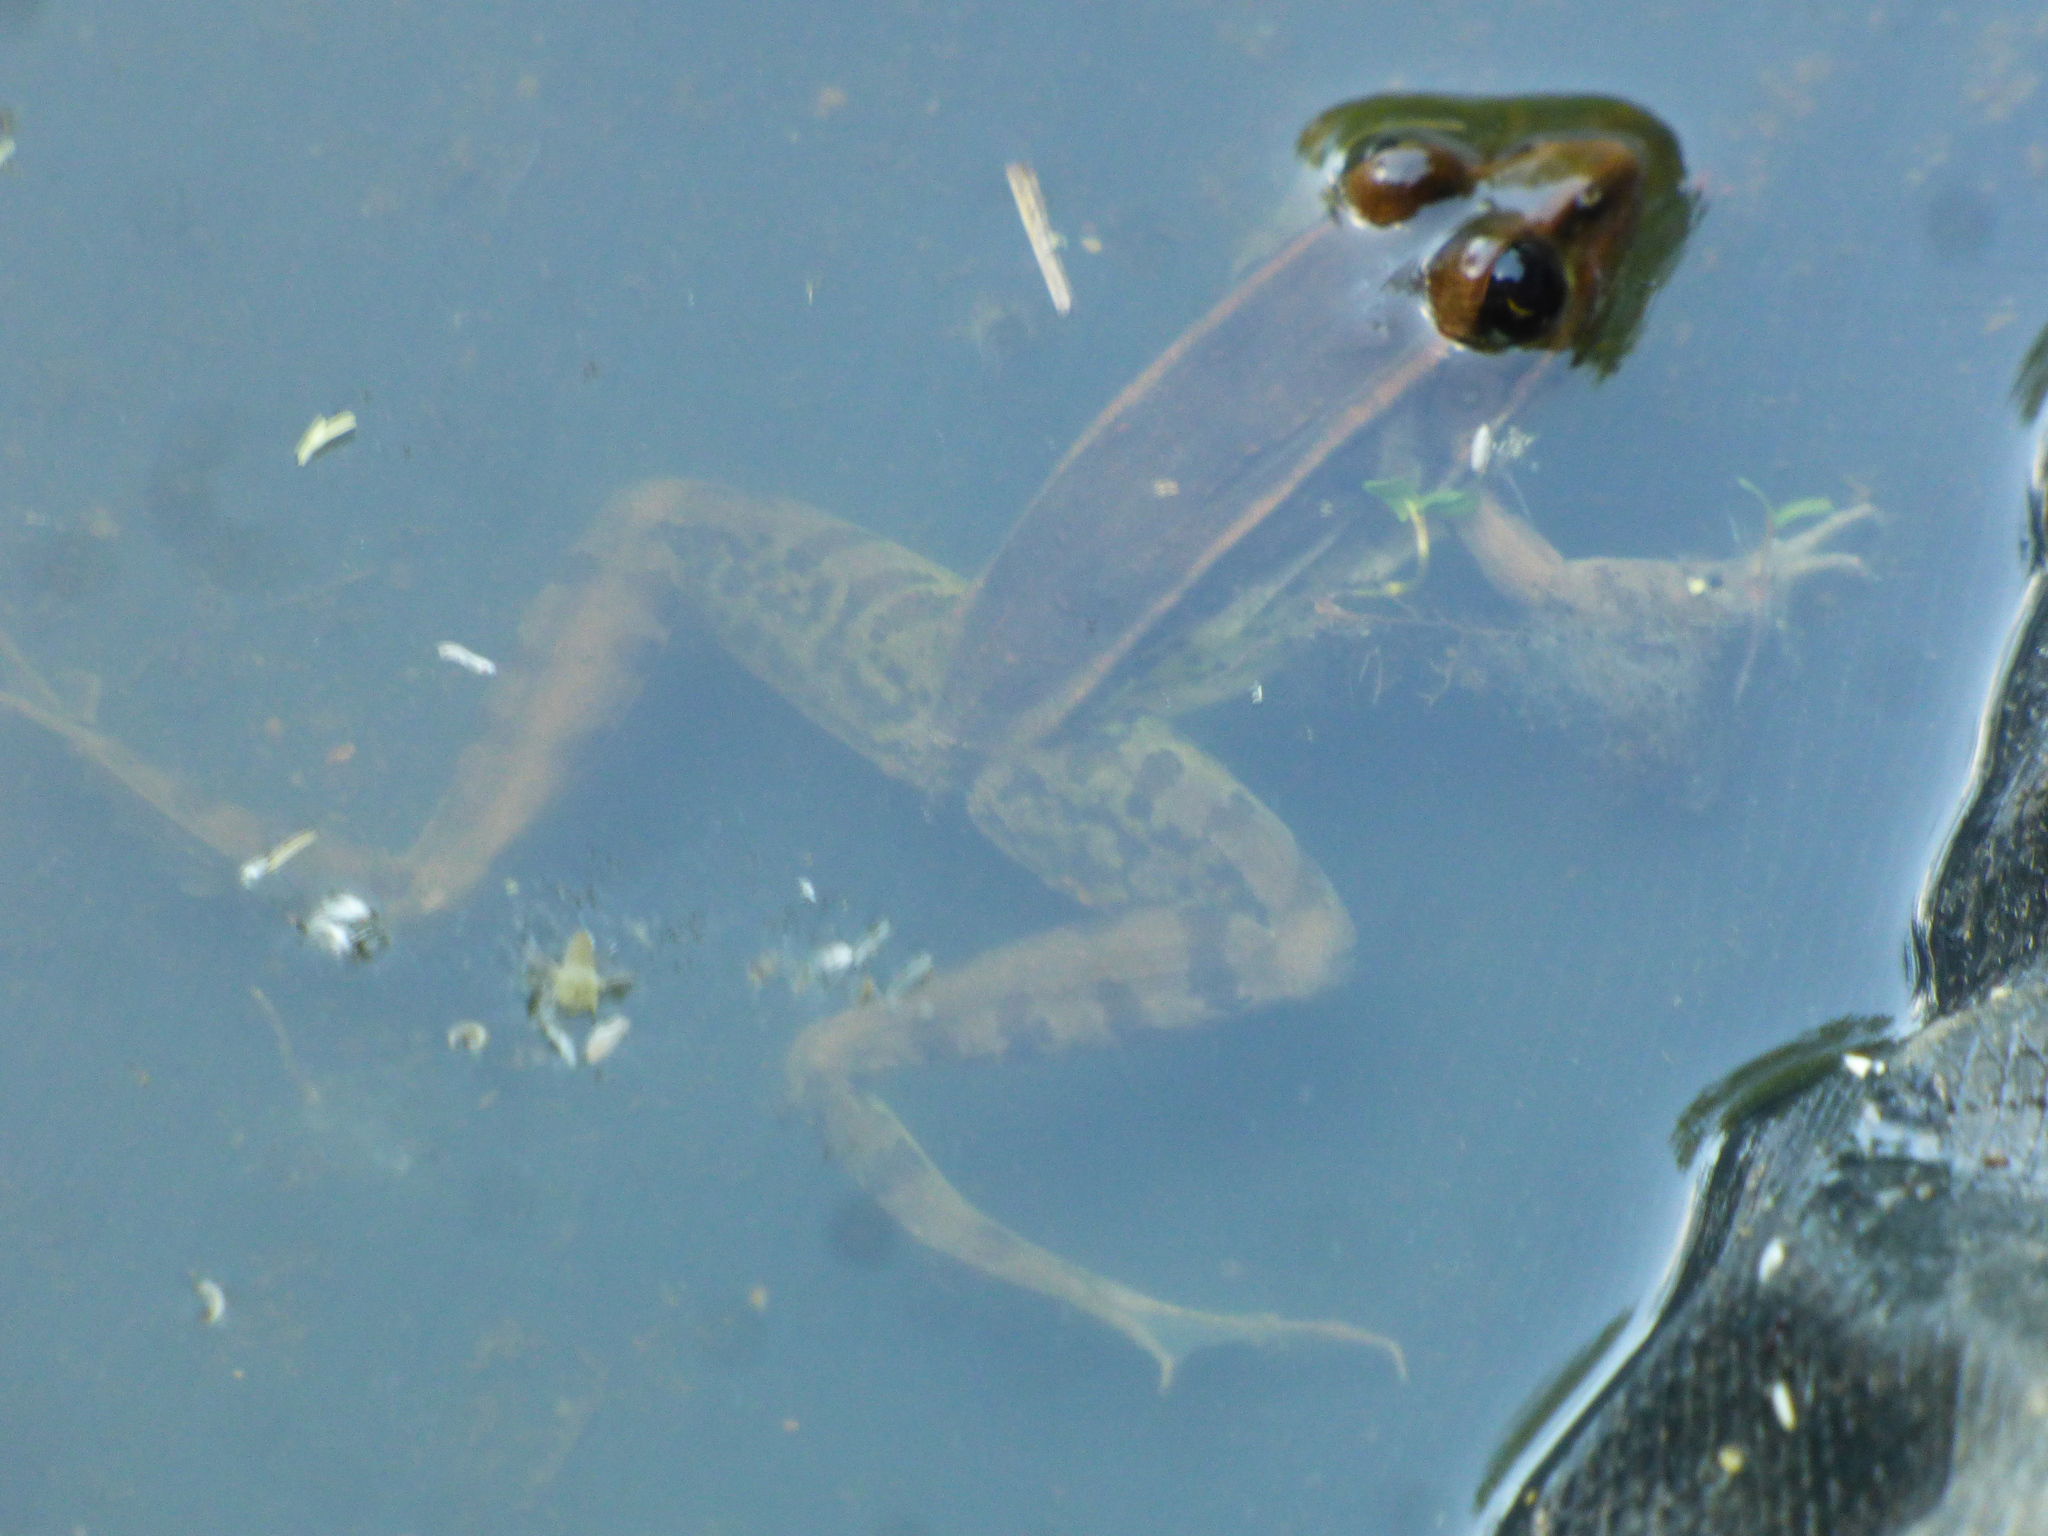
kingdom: Animalia
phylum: Chordata
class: Amphibia
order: Anura
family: Ranidae
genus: Lithobates
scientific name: Lithobates sphenocephalus
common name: Southern leopard frog
